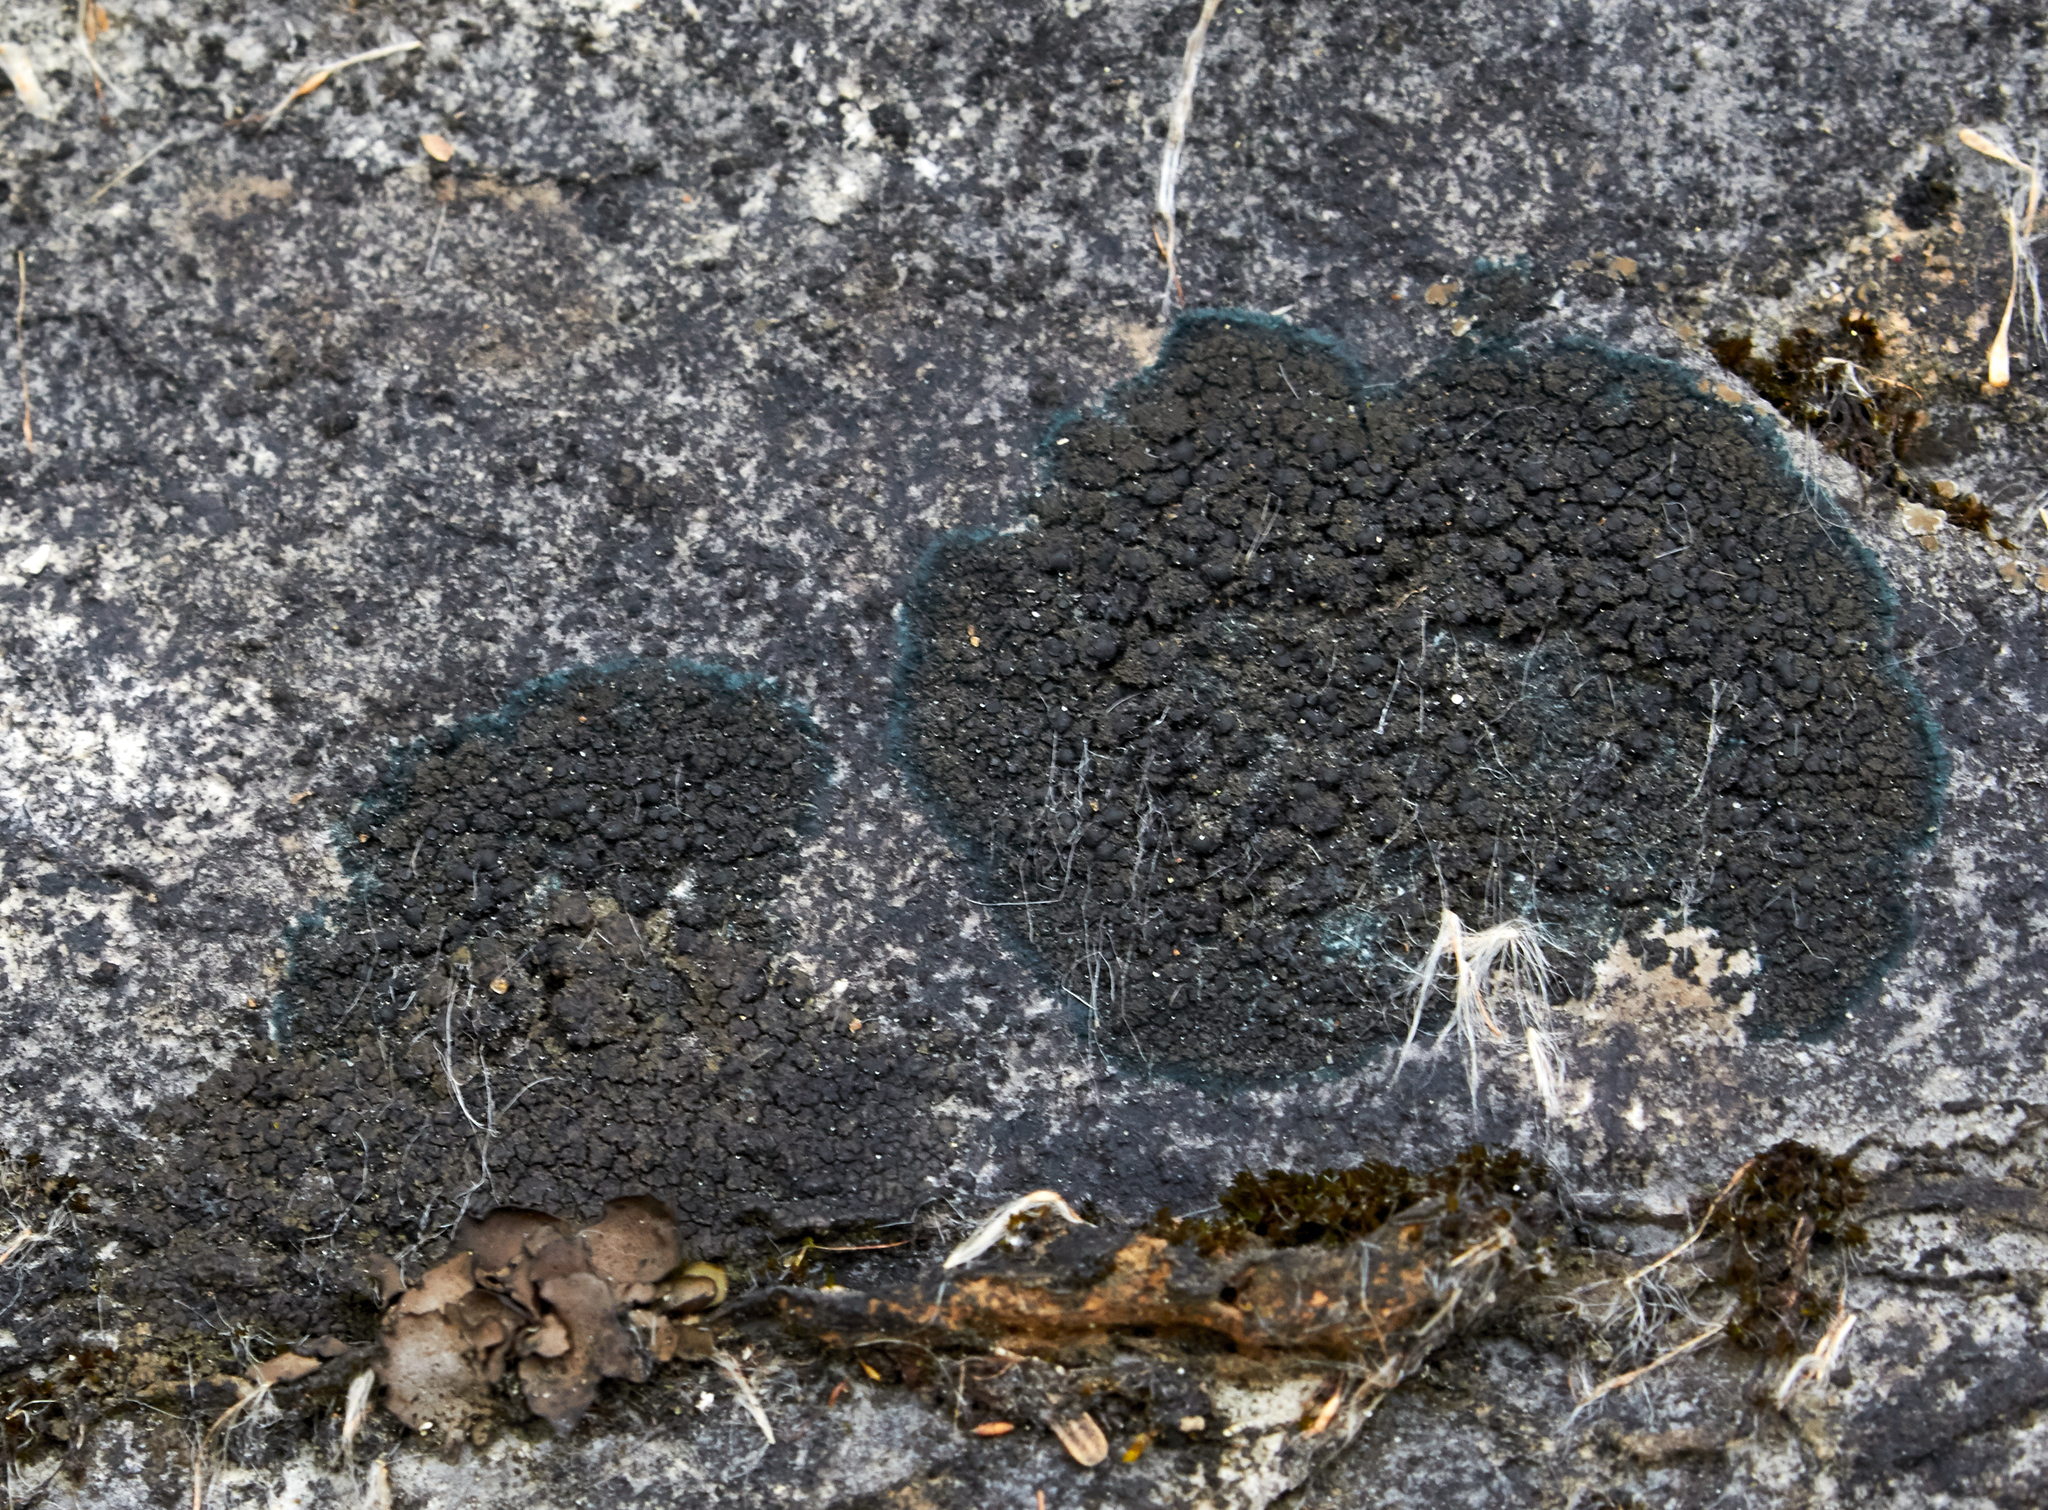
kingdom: Fungi
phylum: Ascomycota
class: Lecanoromycetes
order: Peltigerales
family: Placynthiaceae
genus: Placynthium
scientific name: Placynthium nigrum
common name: Blackthread lichen
